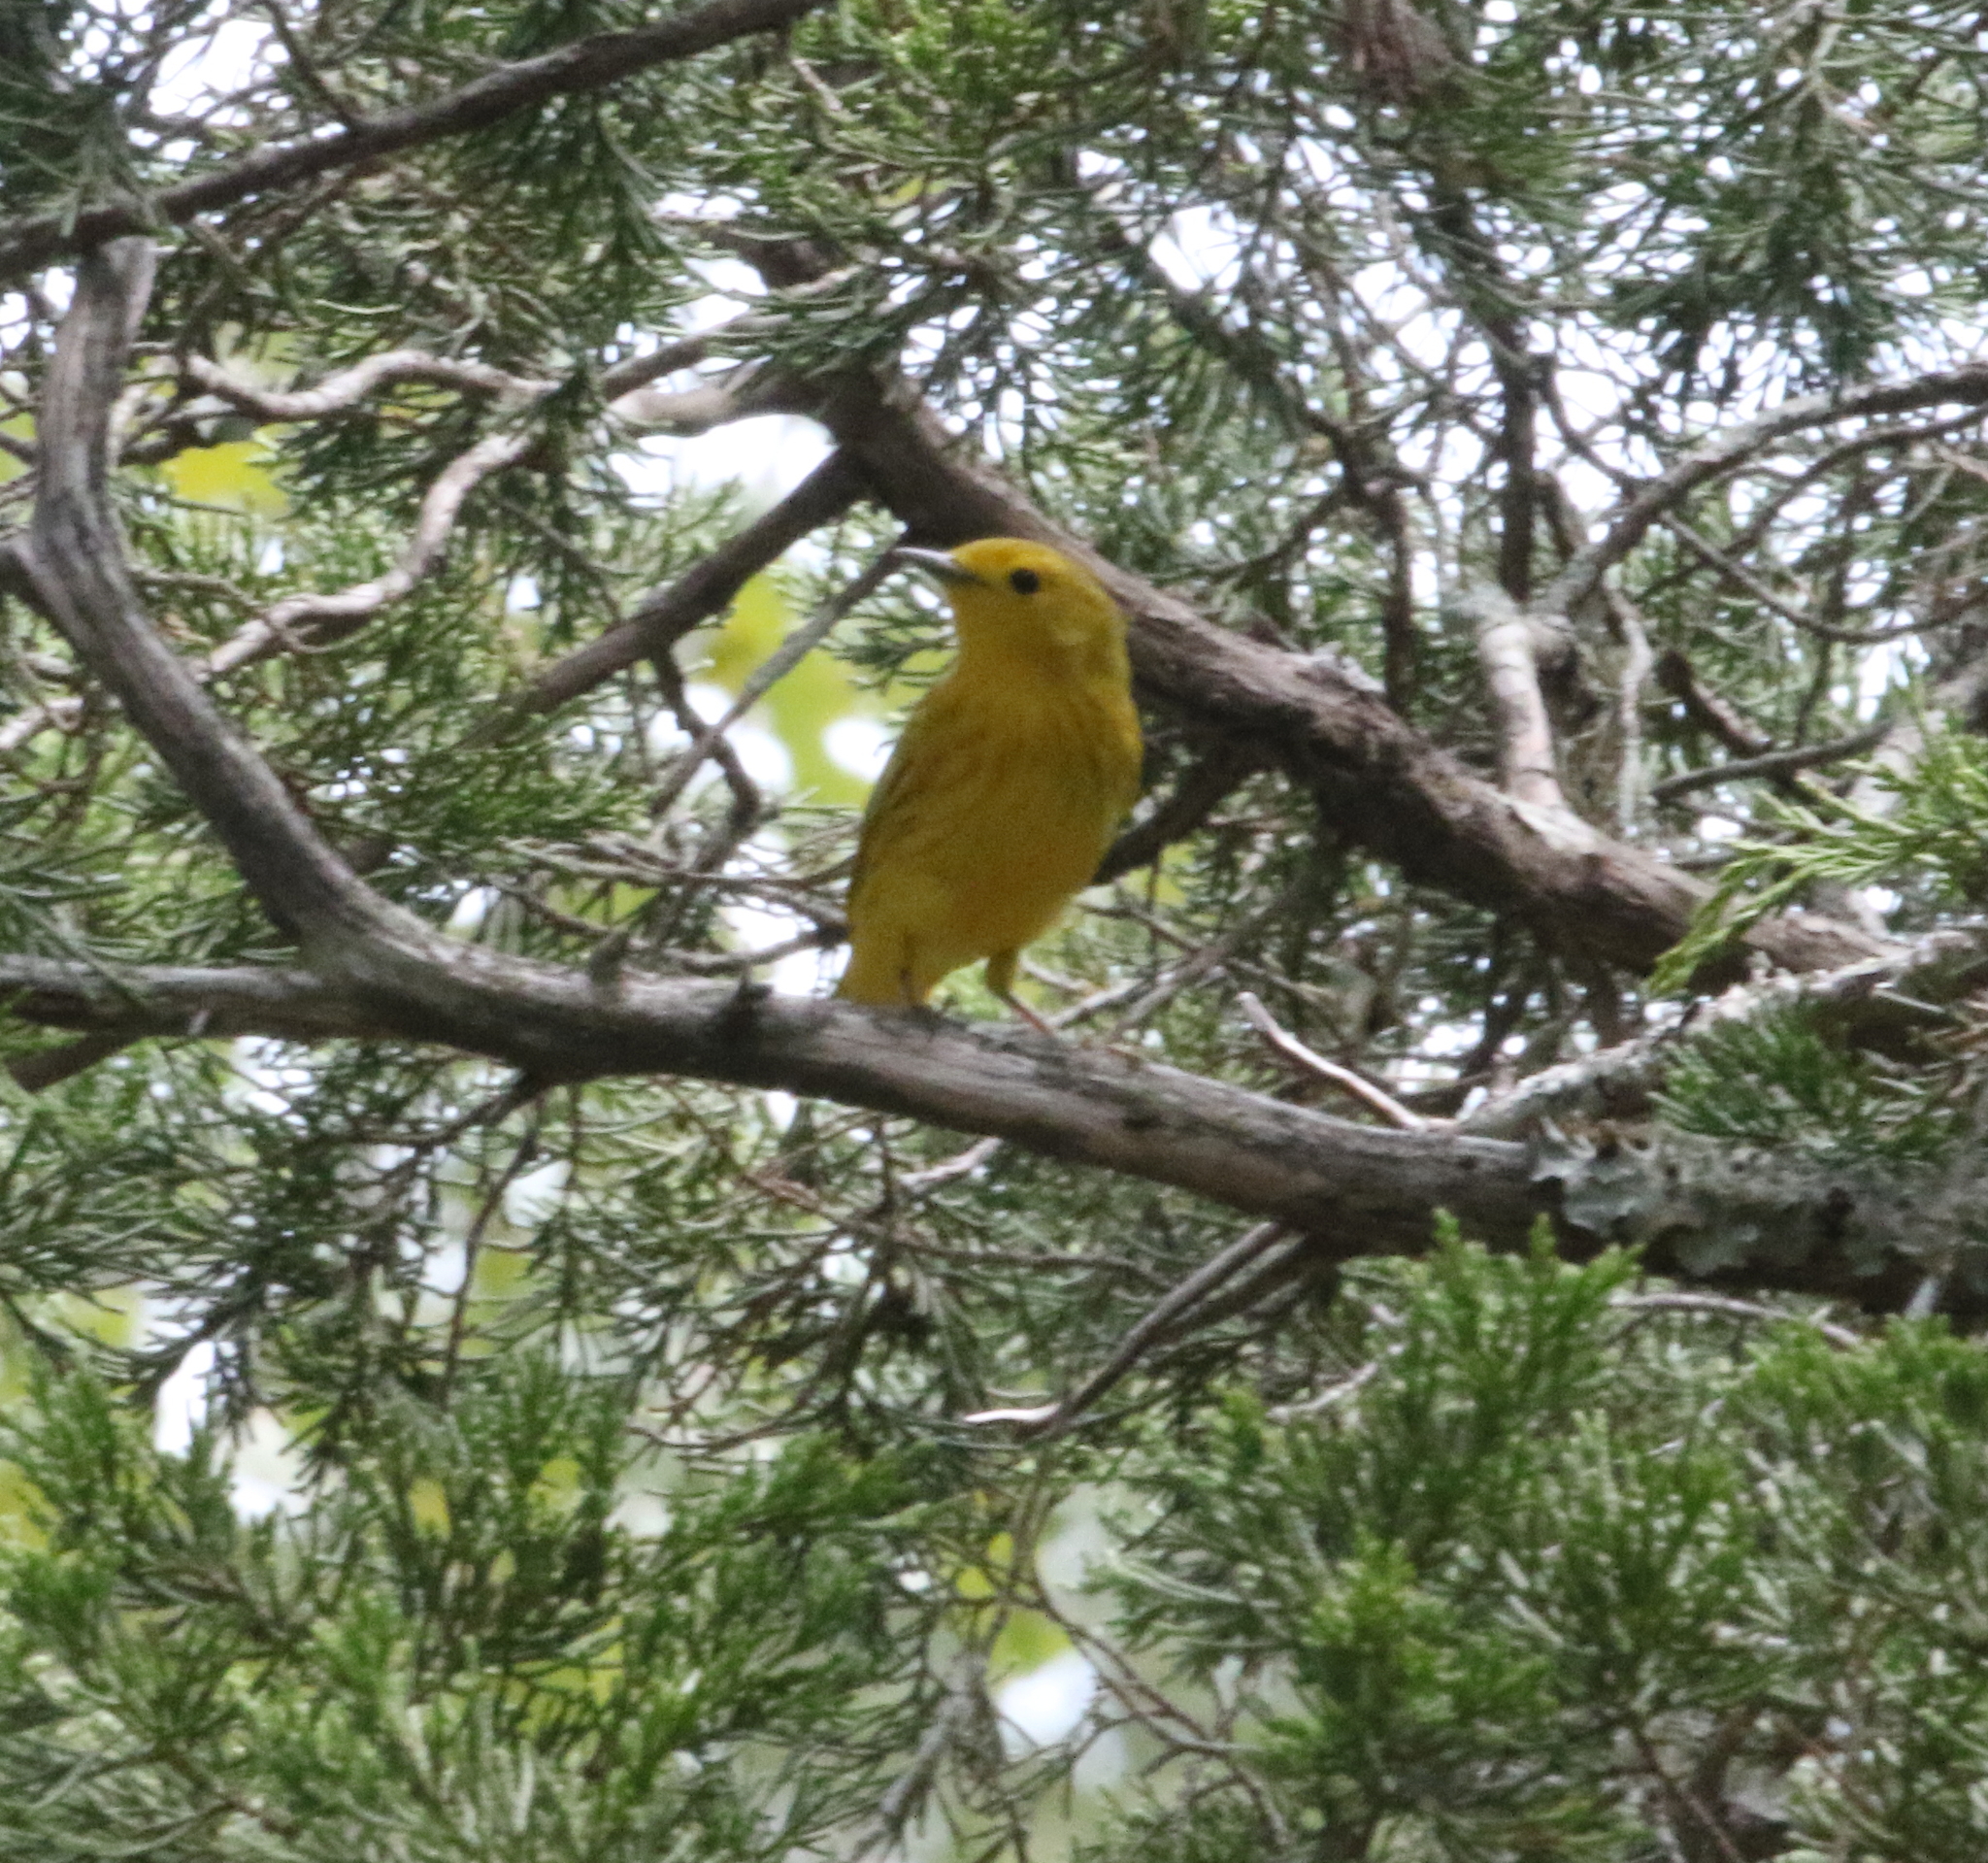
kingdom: Animalia
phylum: Chordata
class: Aves
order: Passeriformes
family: Parulidae
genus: Setophaga
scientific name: Setophaga petechia
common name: Yellow warbler
